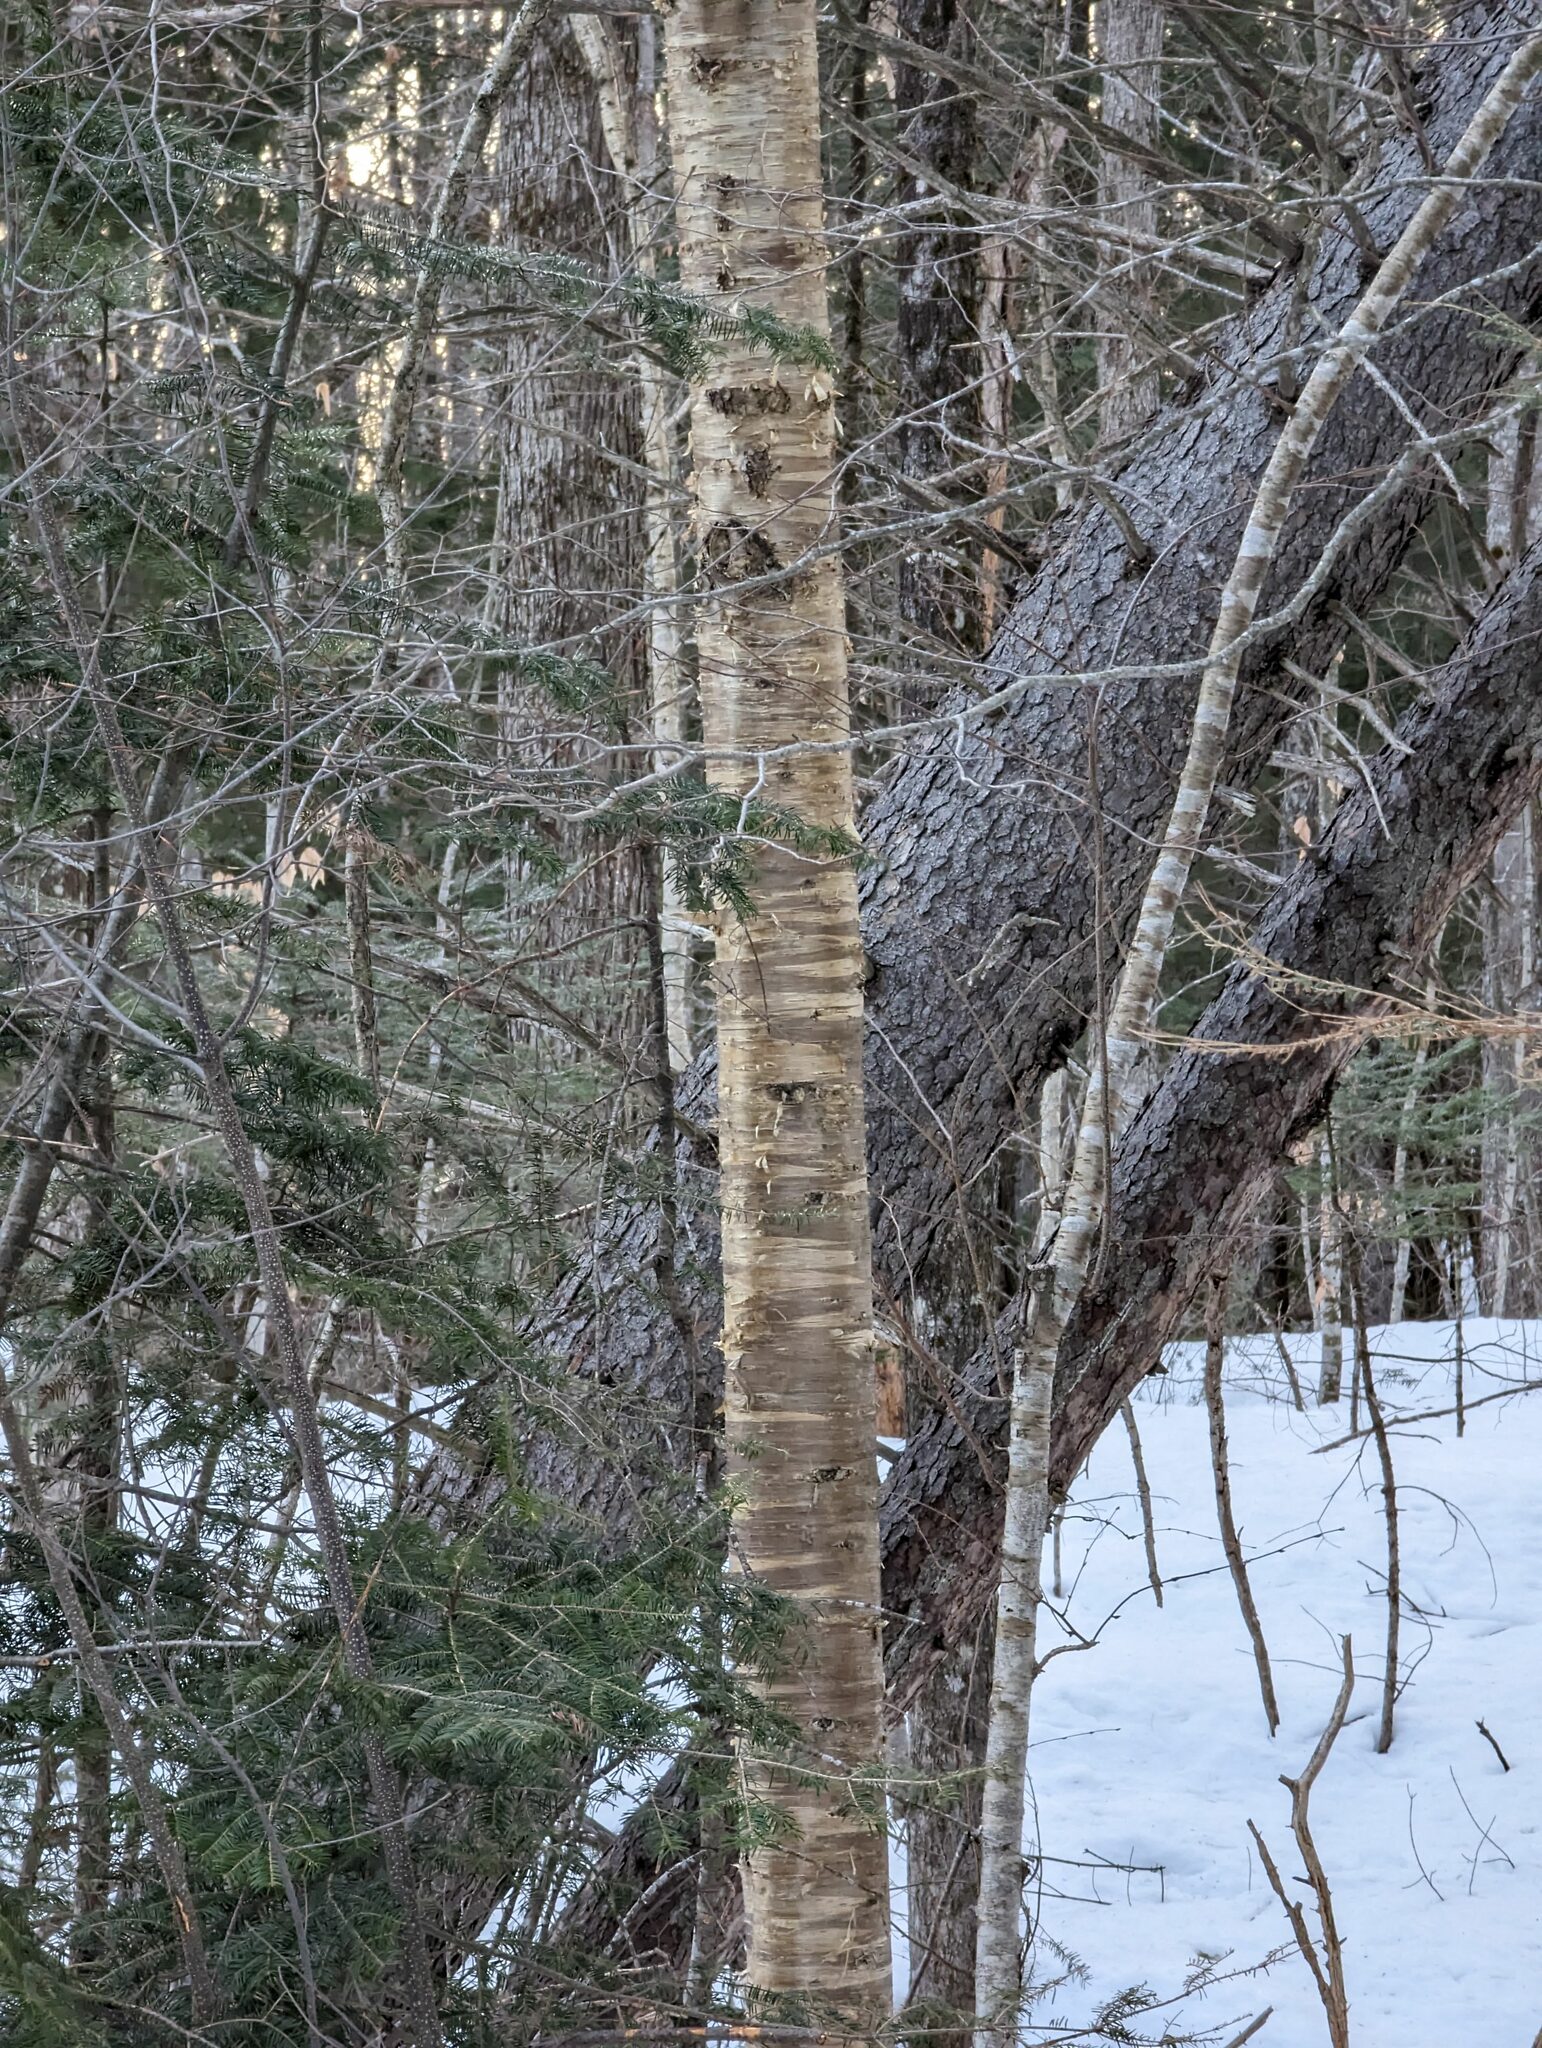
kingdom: Plantae
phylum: Tracheophyta
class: Magnoliopsida
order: Fagales
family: Betulaceae
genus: Betula
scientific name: Betula alleghaniensis
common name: Yellow birch
